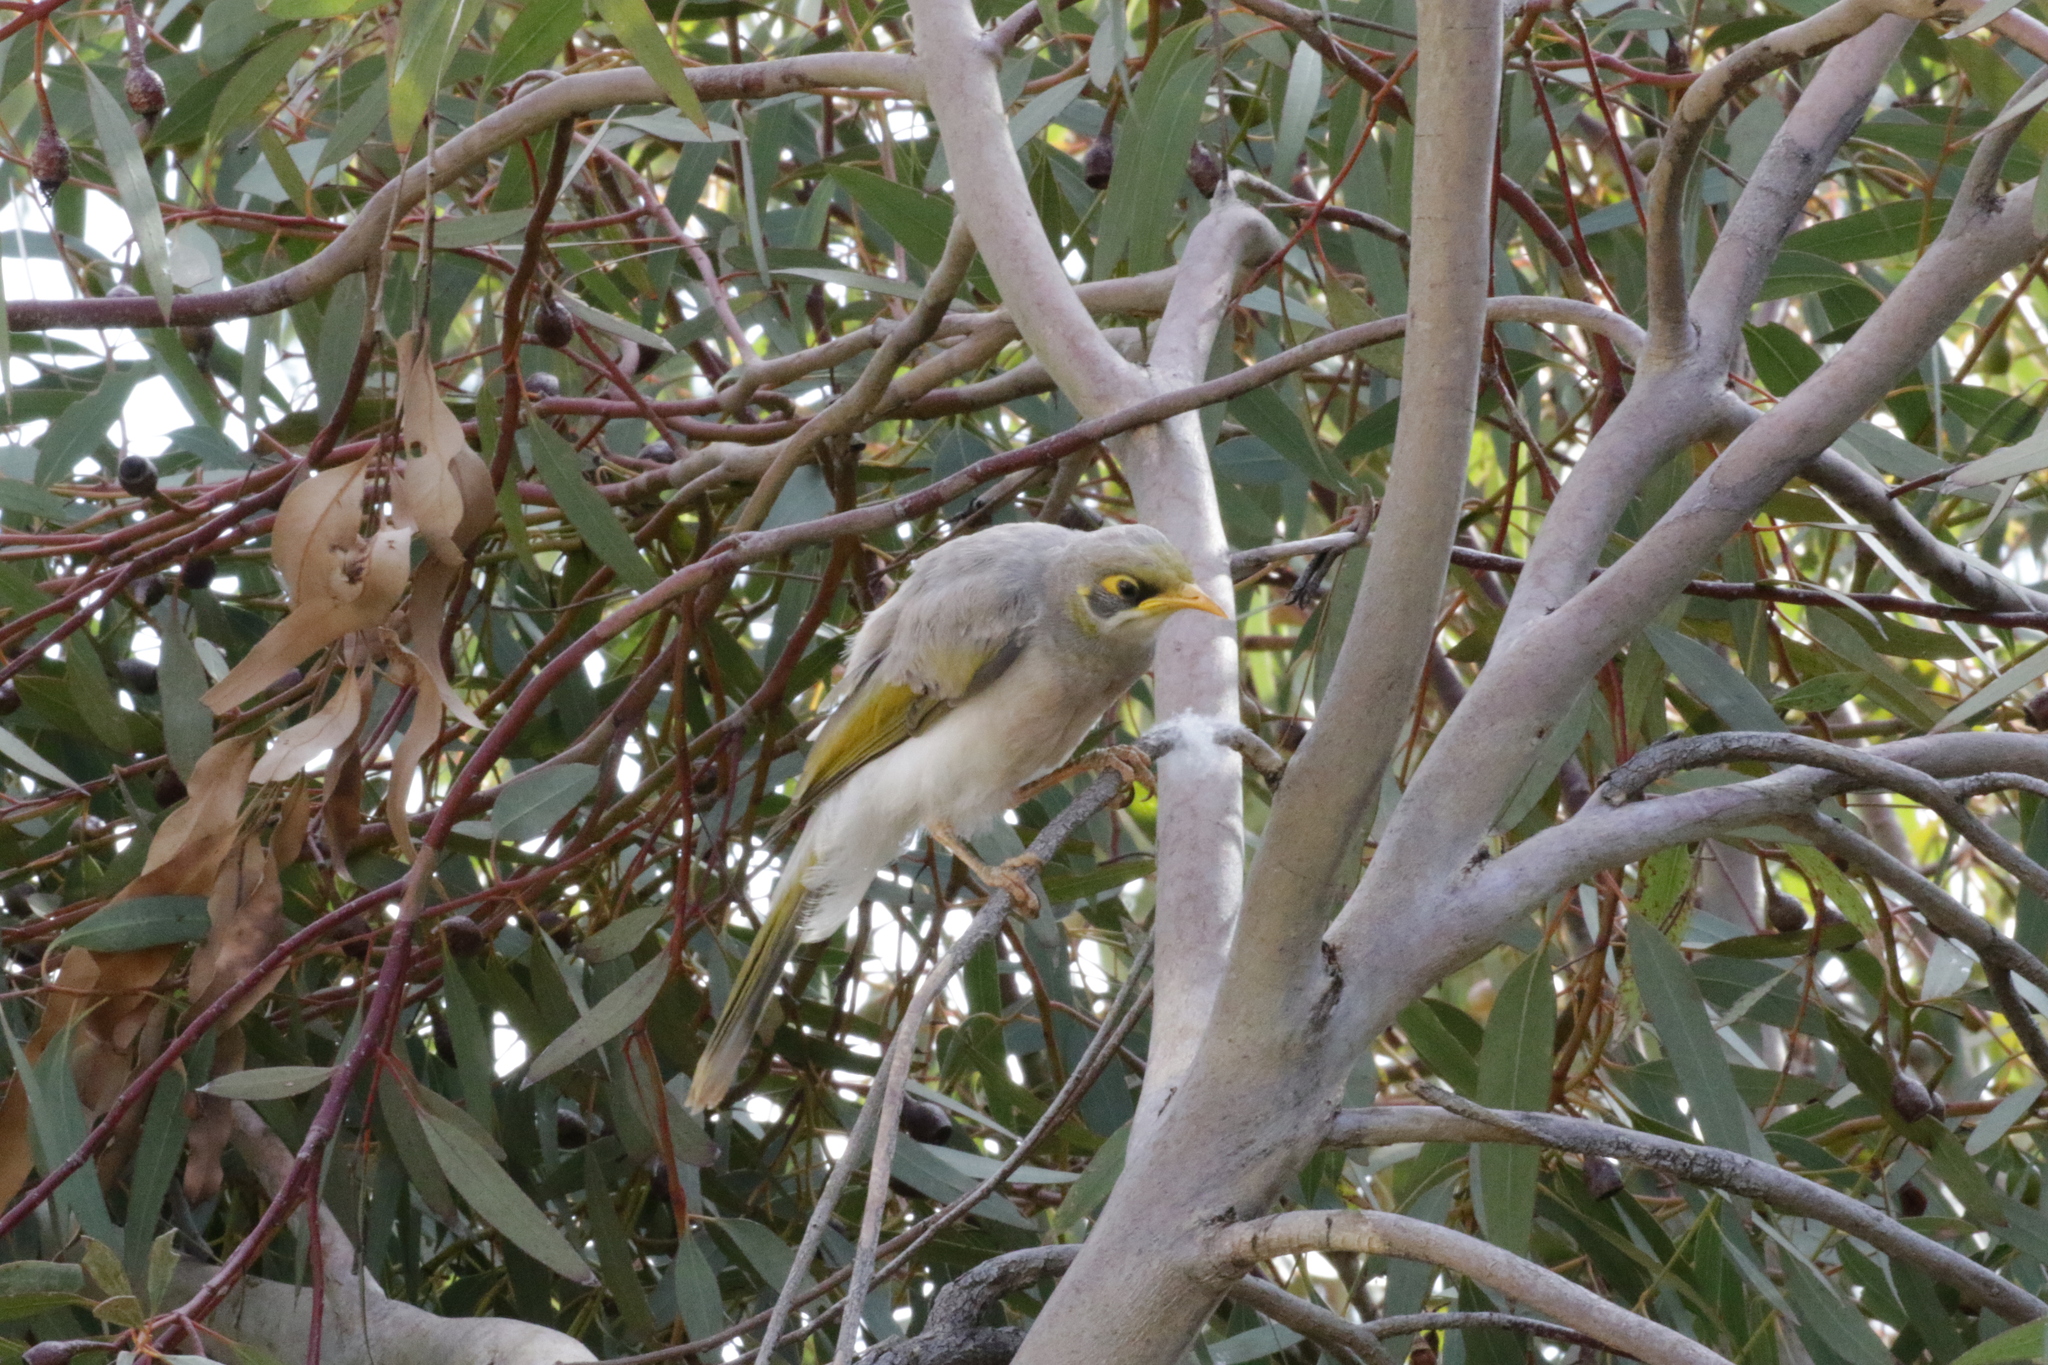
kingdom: Animalia
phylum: Chordata
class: Aves
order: Passeriformes
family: Meliphagidae
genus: Manorina
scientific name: Manorina flavigula
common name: Yellow-throated miner
